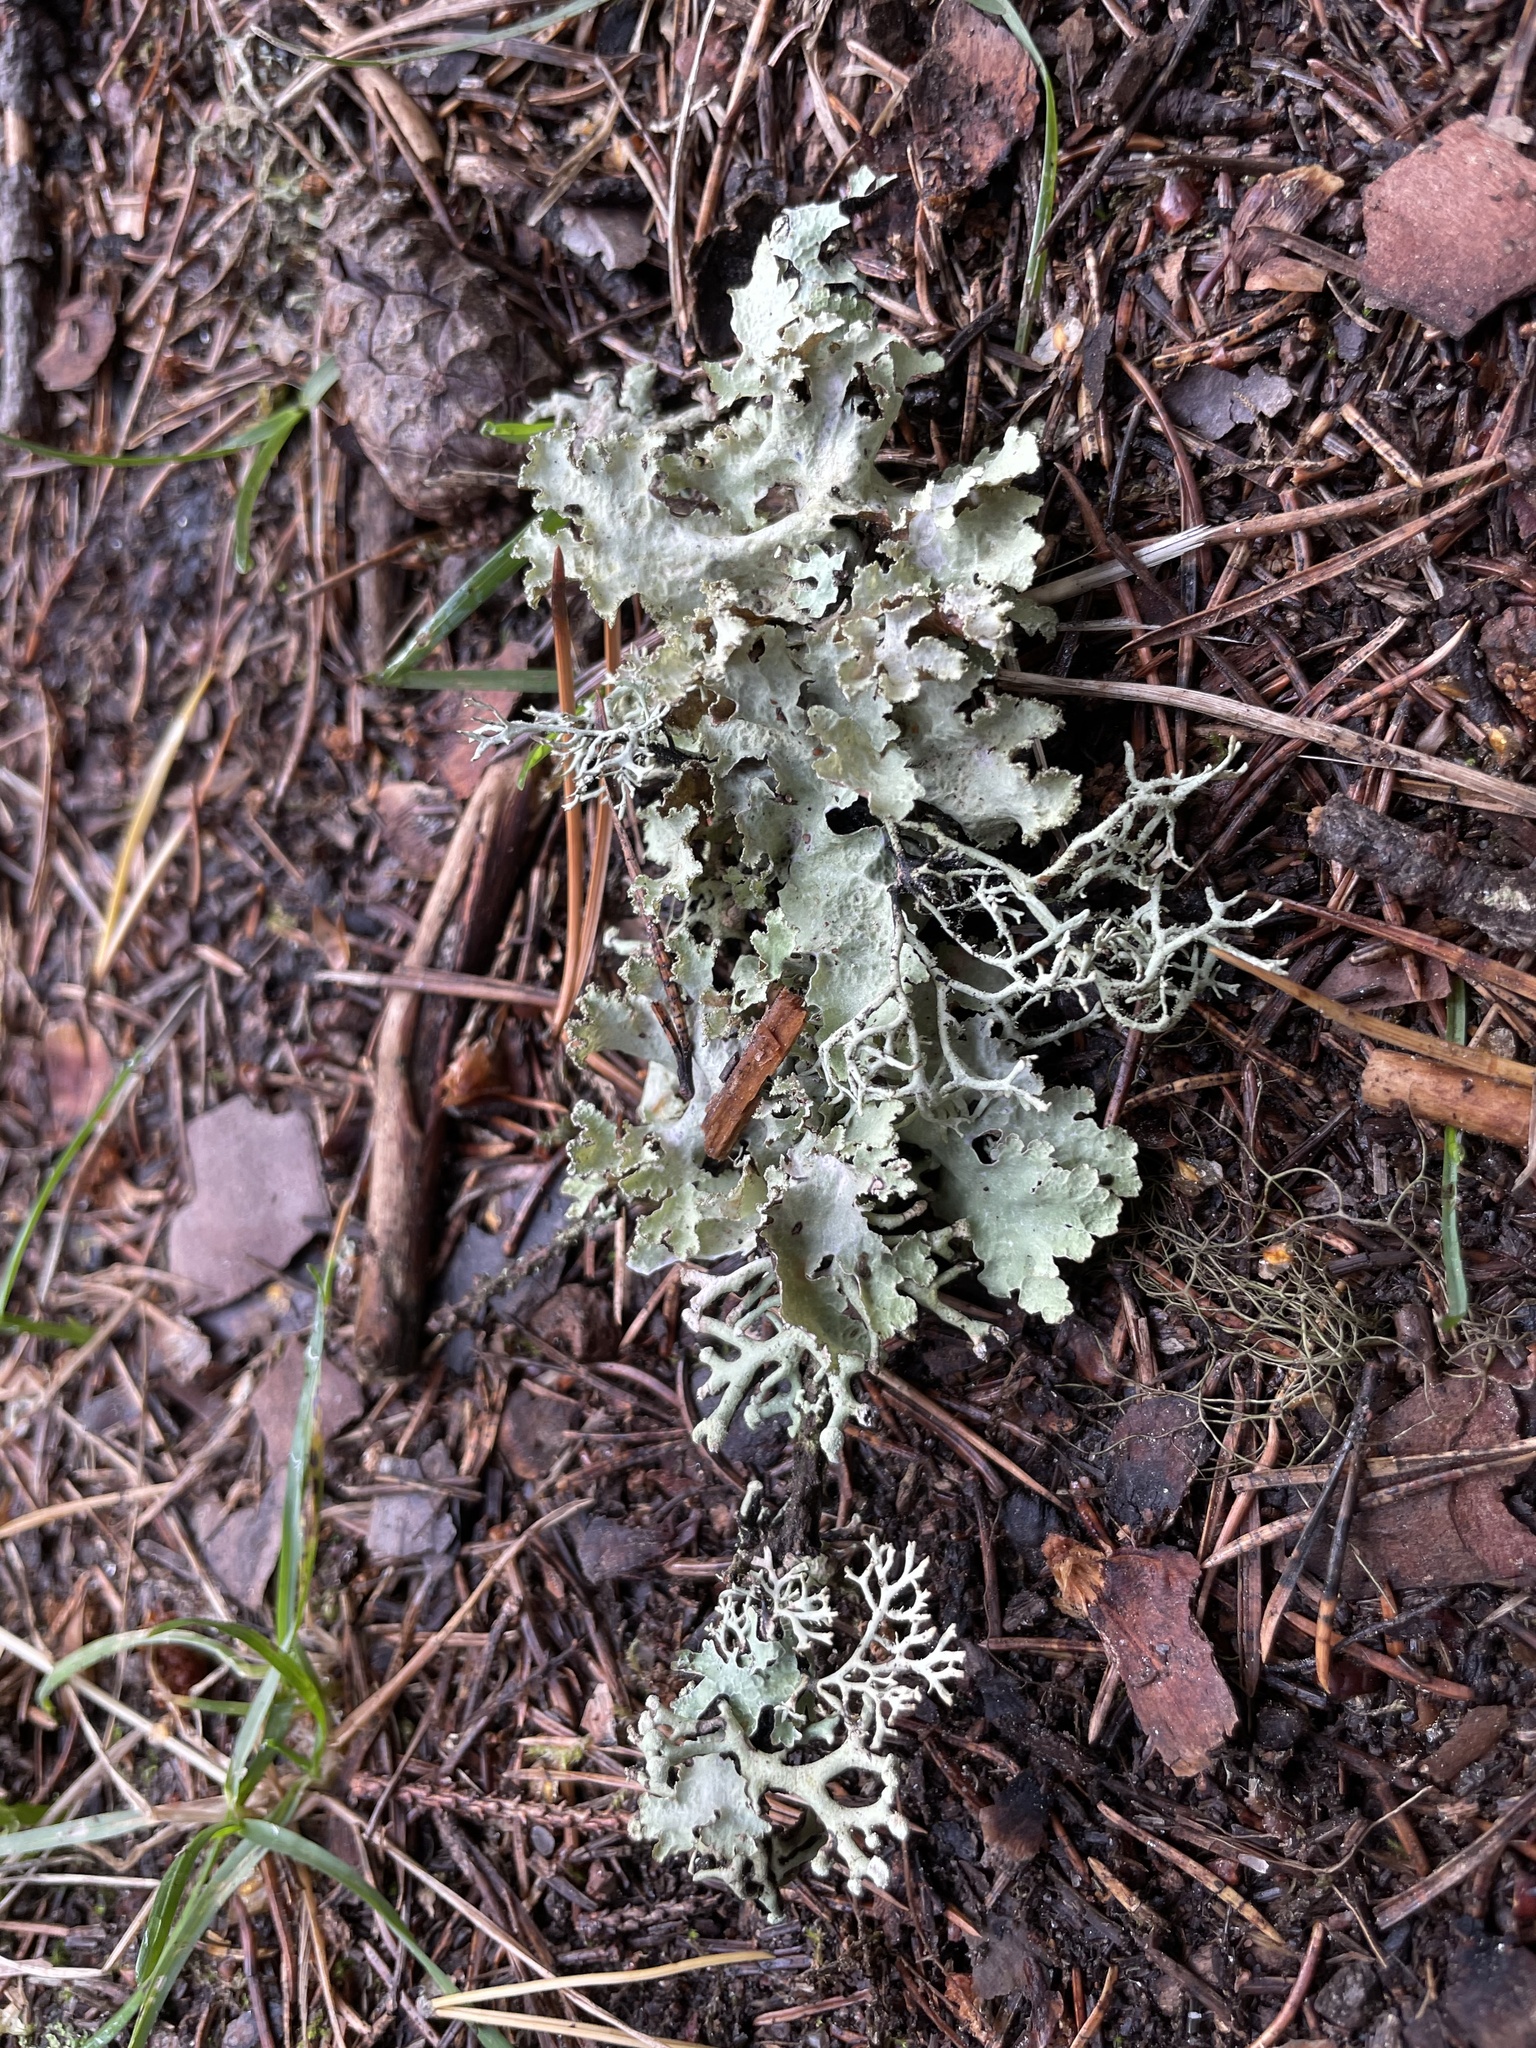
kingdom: Fungi
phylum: Ascomycota
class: Lecanoromycetes
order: Lecanorales
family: Parmeliaceae
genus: Platismatia
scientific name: Platismatia glauca
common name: Varied rag lichen
